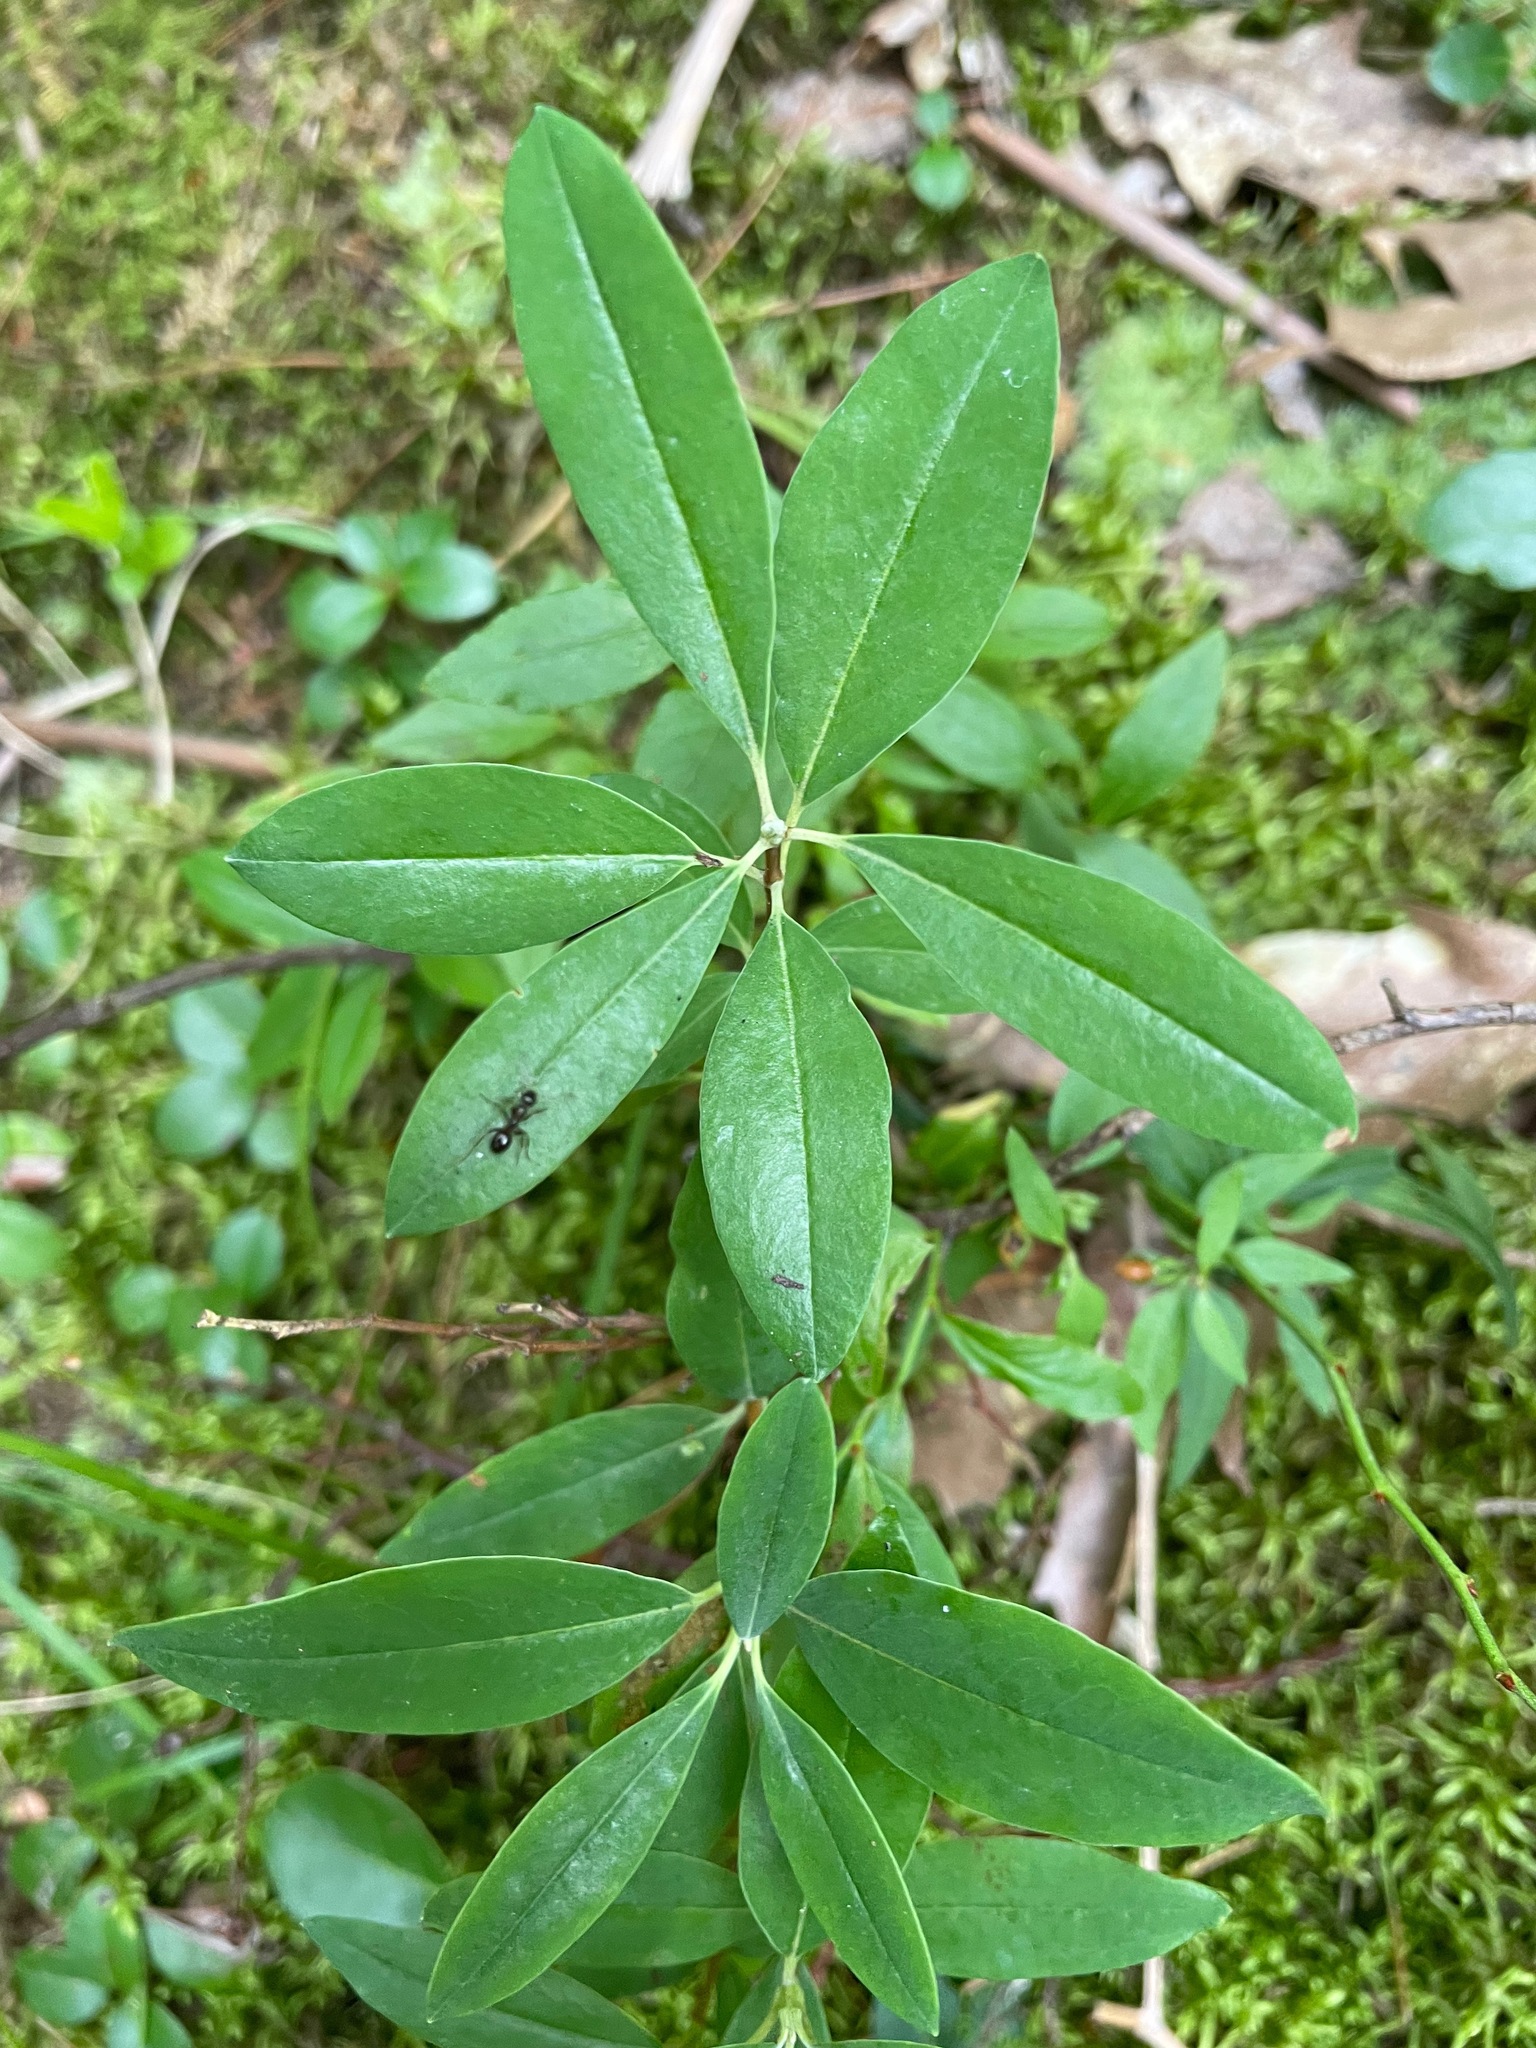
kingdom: Plantae
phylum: Tracheophyta
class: Magnoliopsida
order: Ericales
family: Ericaceae
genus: Kalmia
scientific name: Kalmia angustifolia
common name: Sheep-laurel
